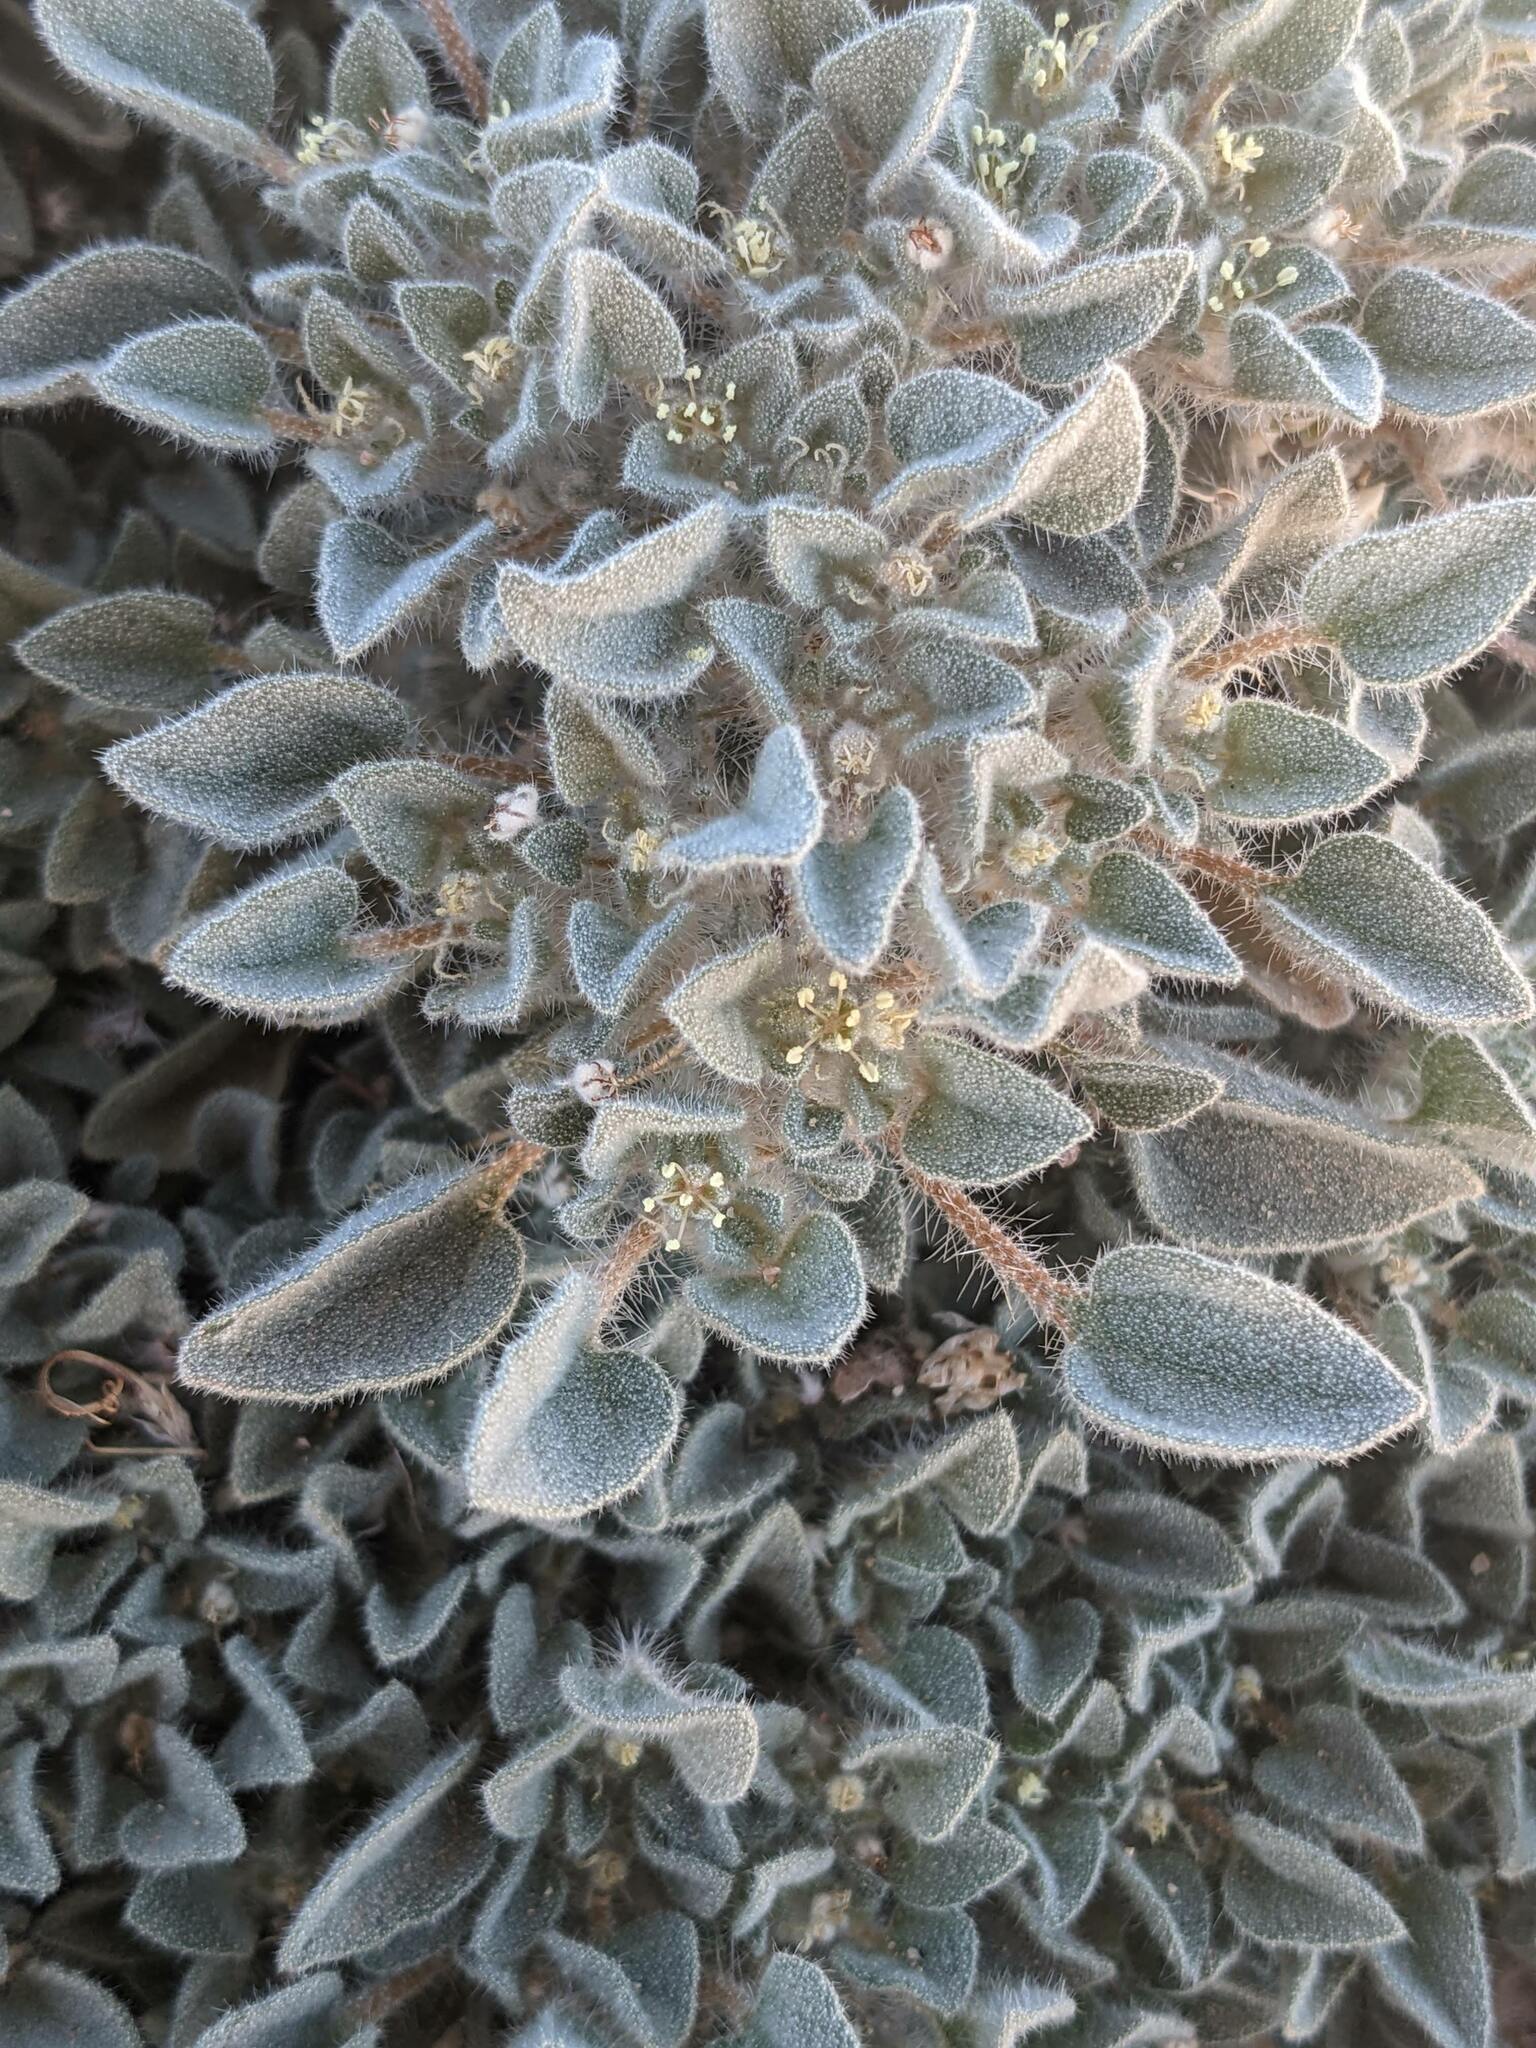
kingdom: Plantae
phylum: Tracheophyta
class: Magnoliopsida
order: Malpighiales
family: Euphorbiaceae
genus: Croton
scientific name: Croton setiger
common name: Dove weed
